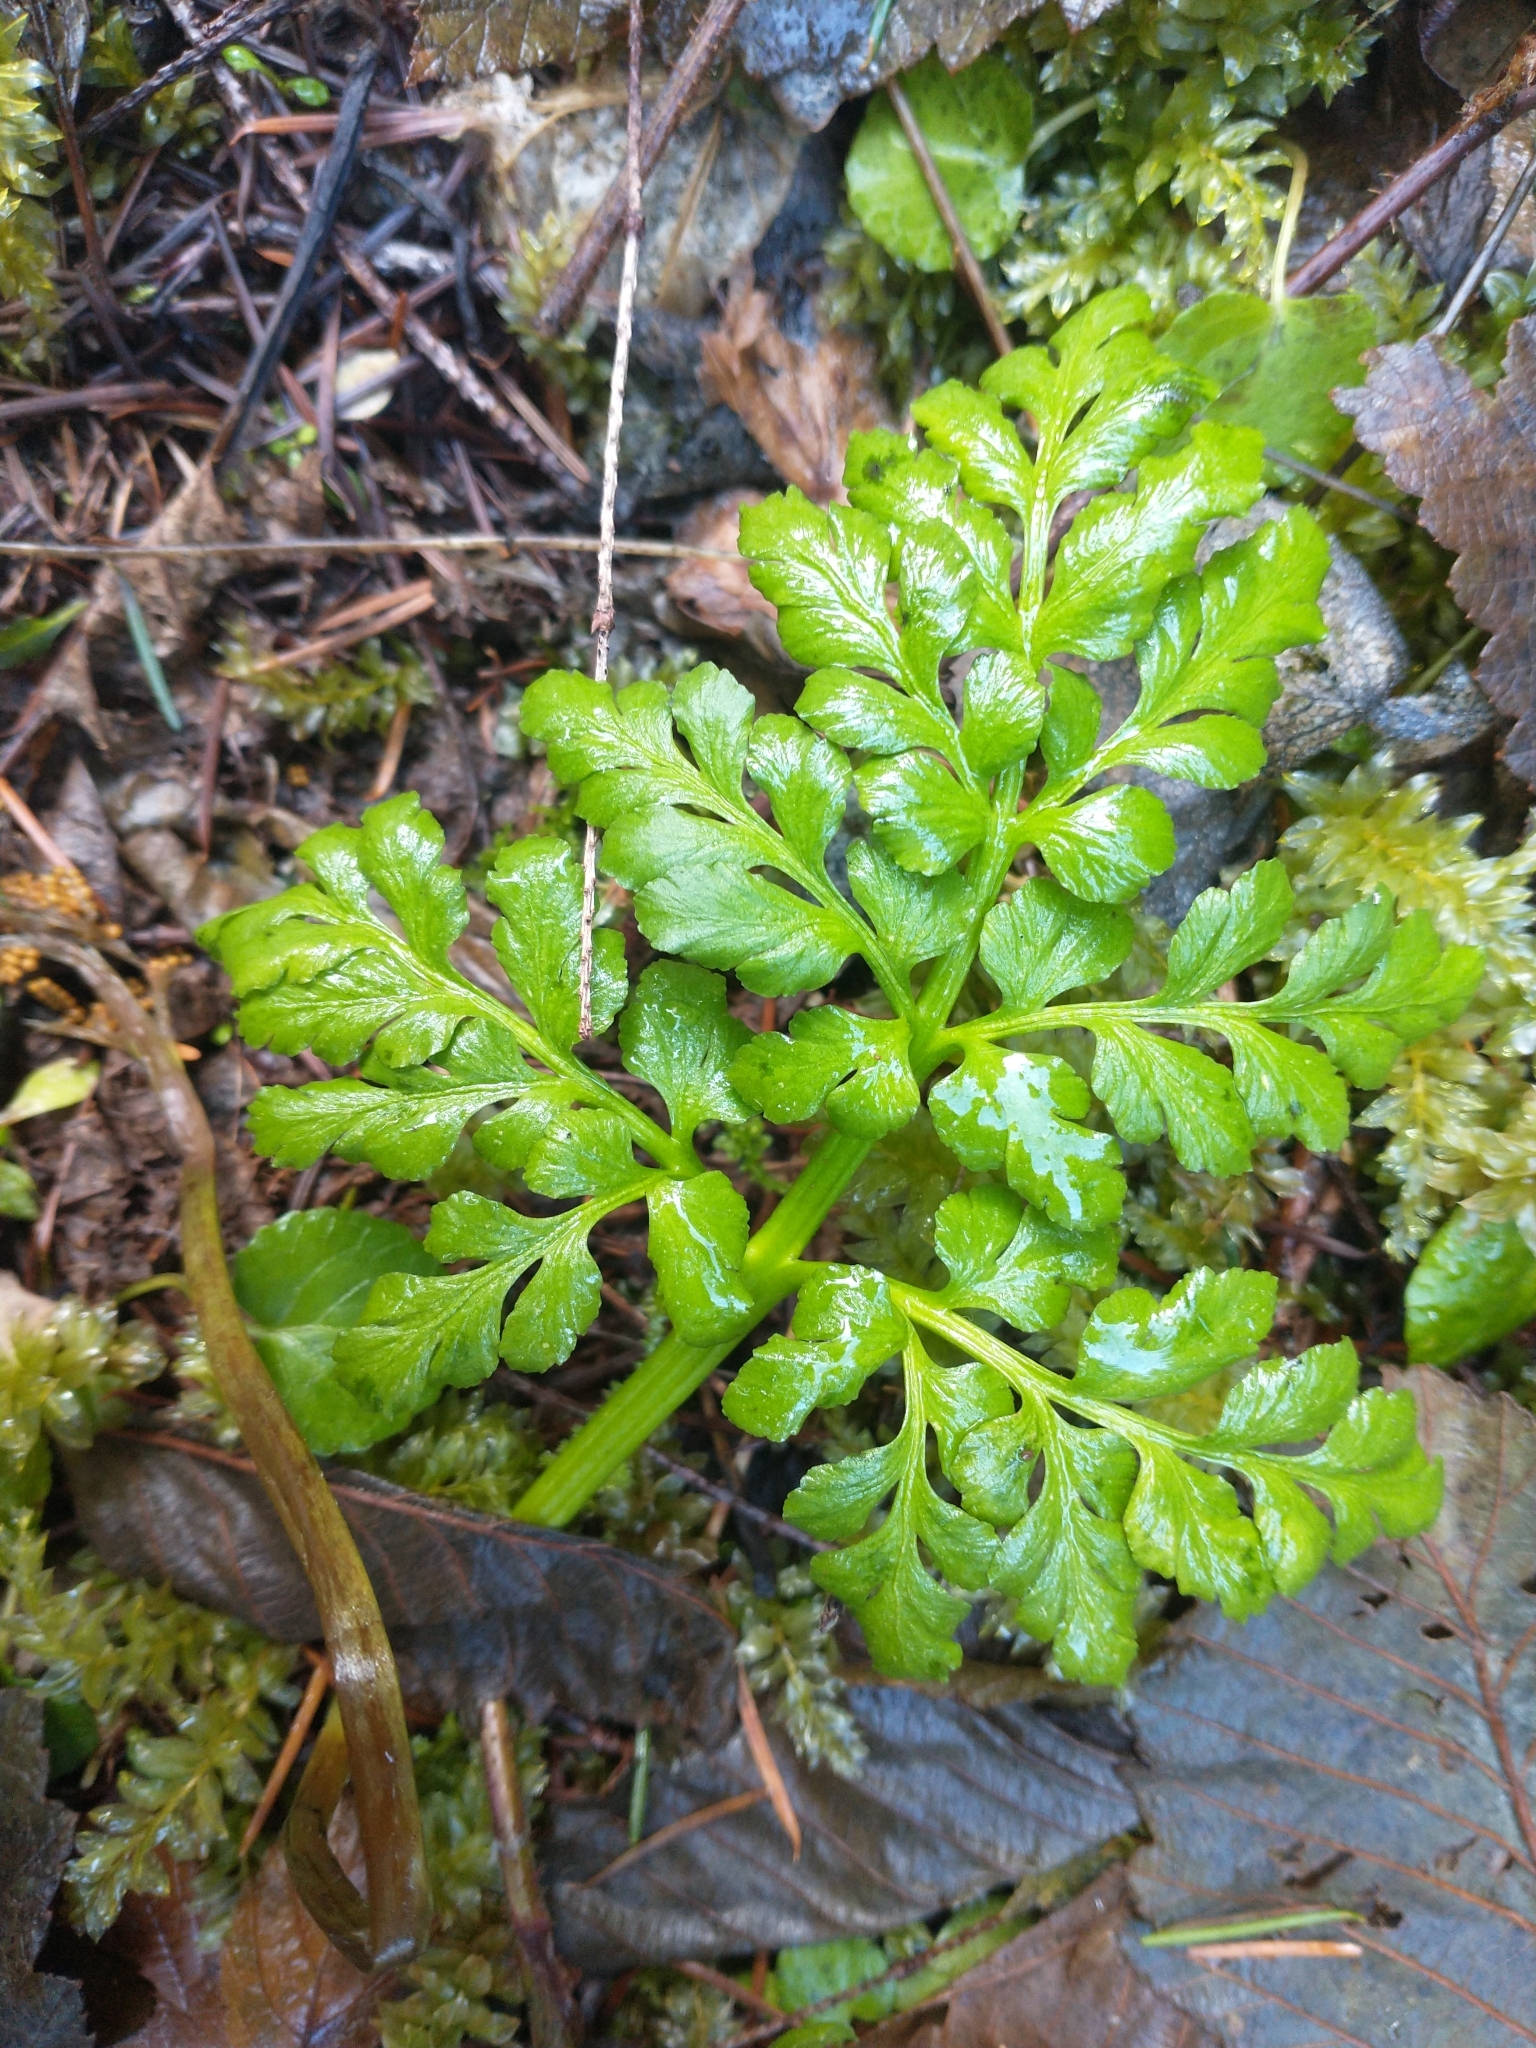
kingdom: Plantae
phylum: Tracheophyta
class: Polypodiopsida
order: Ophioglossales
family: Ophioglossaceae
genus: Sceptridium
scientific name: Sceptridium multifidum
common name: Leathery grape fern
